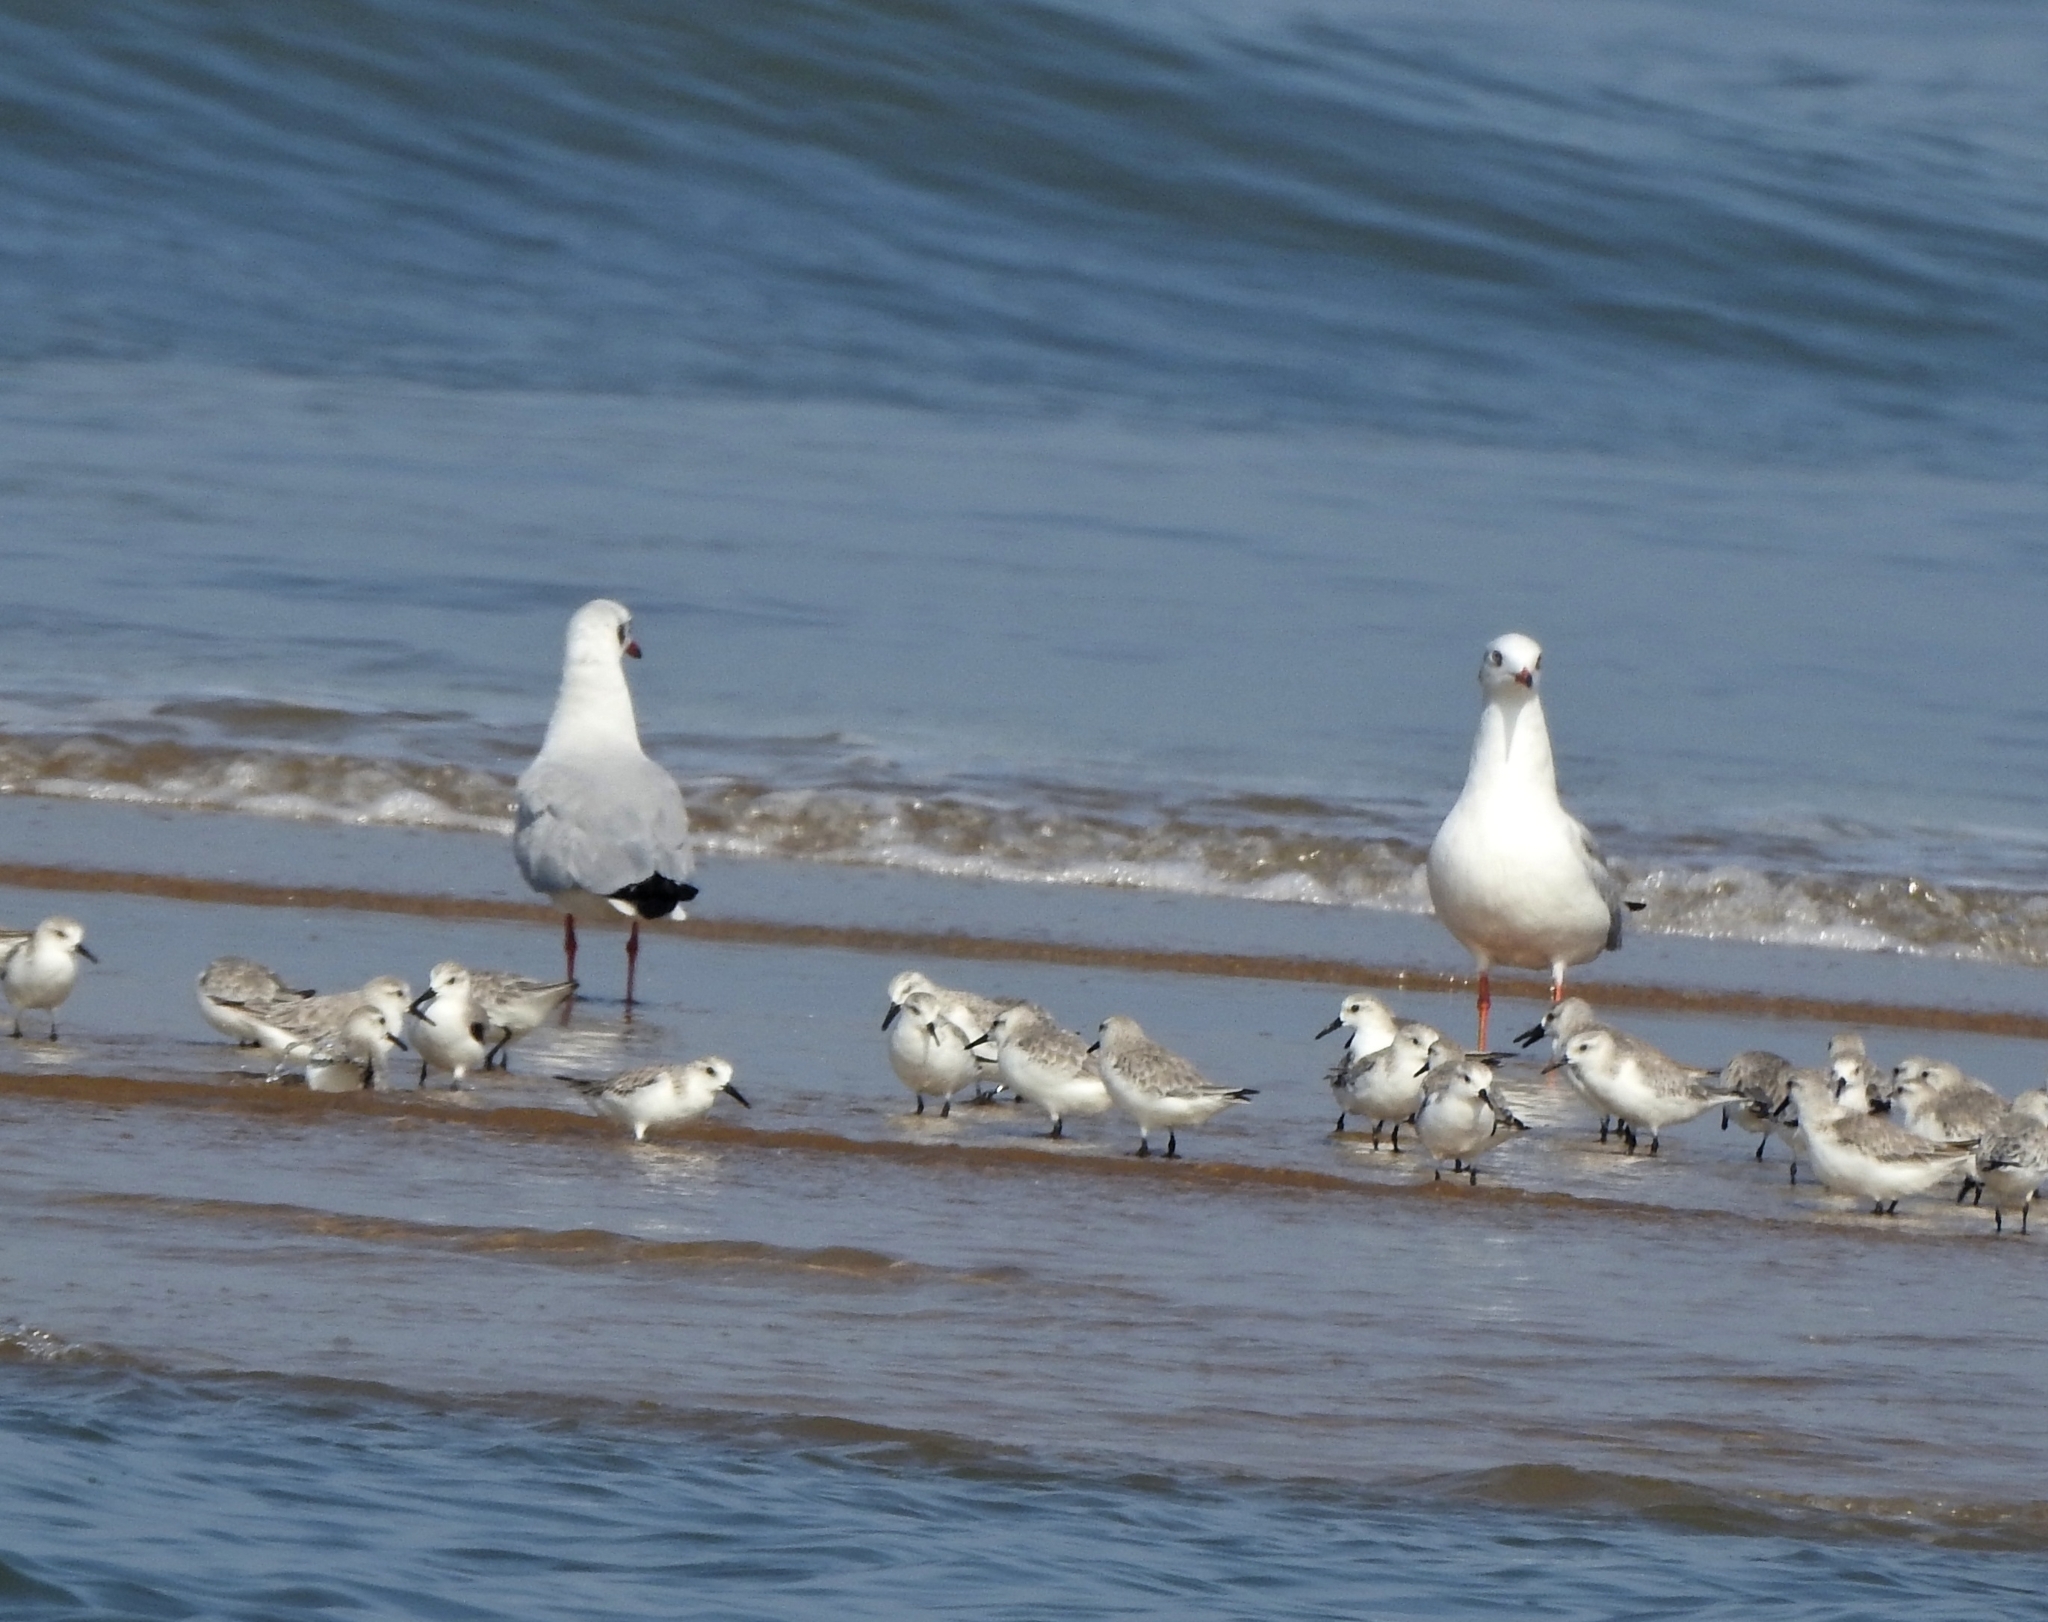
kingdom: Animalia
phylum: Chordata
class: Aves
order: Charadriiformes
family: Scolopacidae
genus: Calidris
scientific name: Calidris alba
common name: Sanderling
